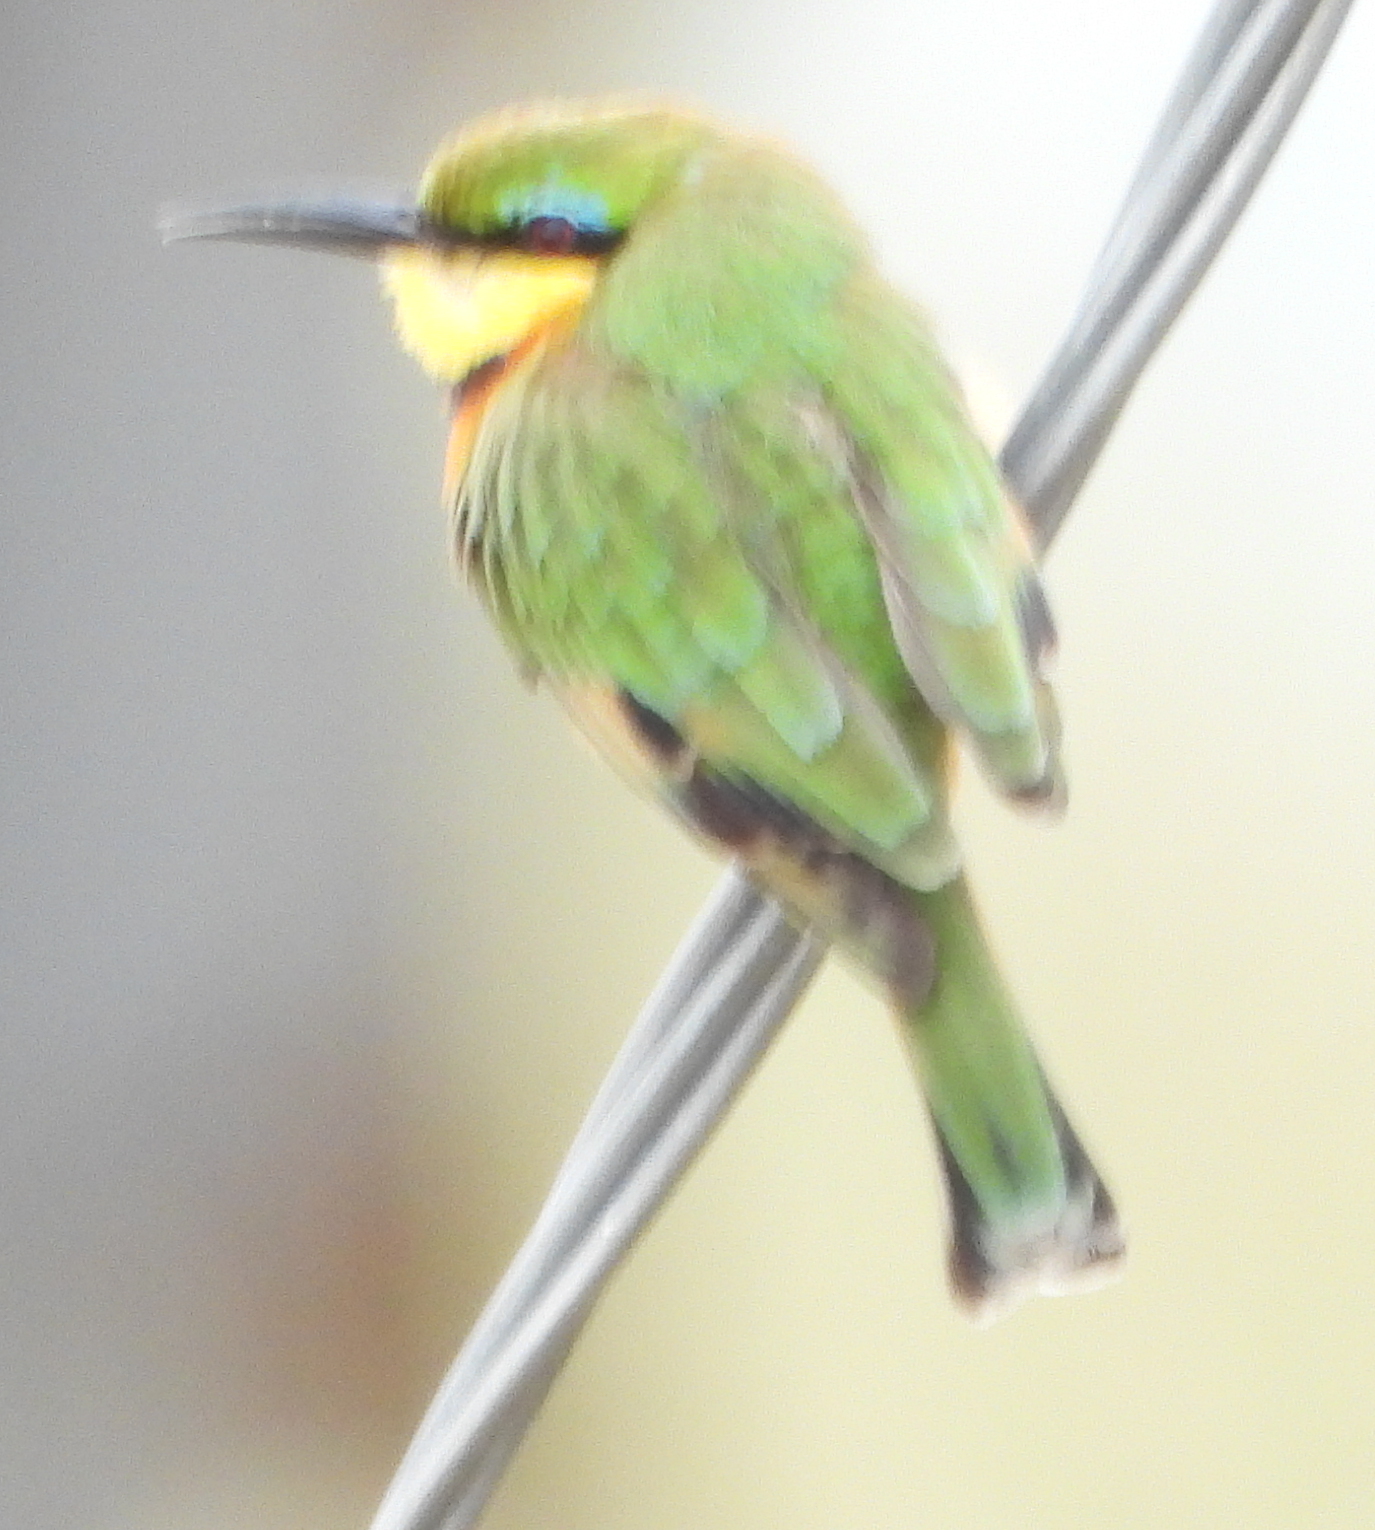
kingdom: Animalia
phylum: Chordata
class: Aves
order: Coraciiformes
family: Meropidae
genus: Merops
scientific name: Merops pusillus
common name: Little bee-eater
